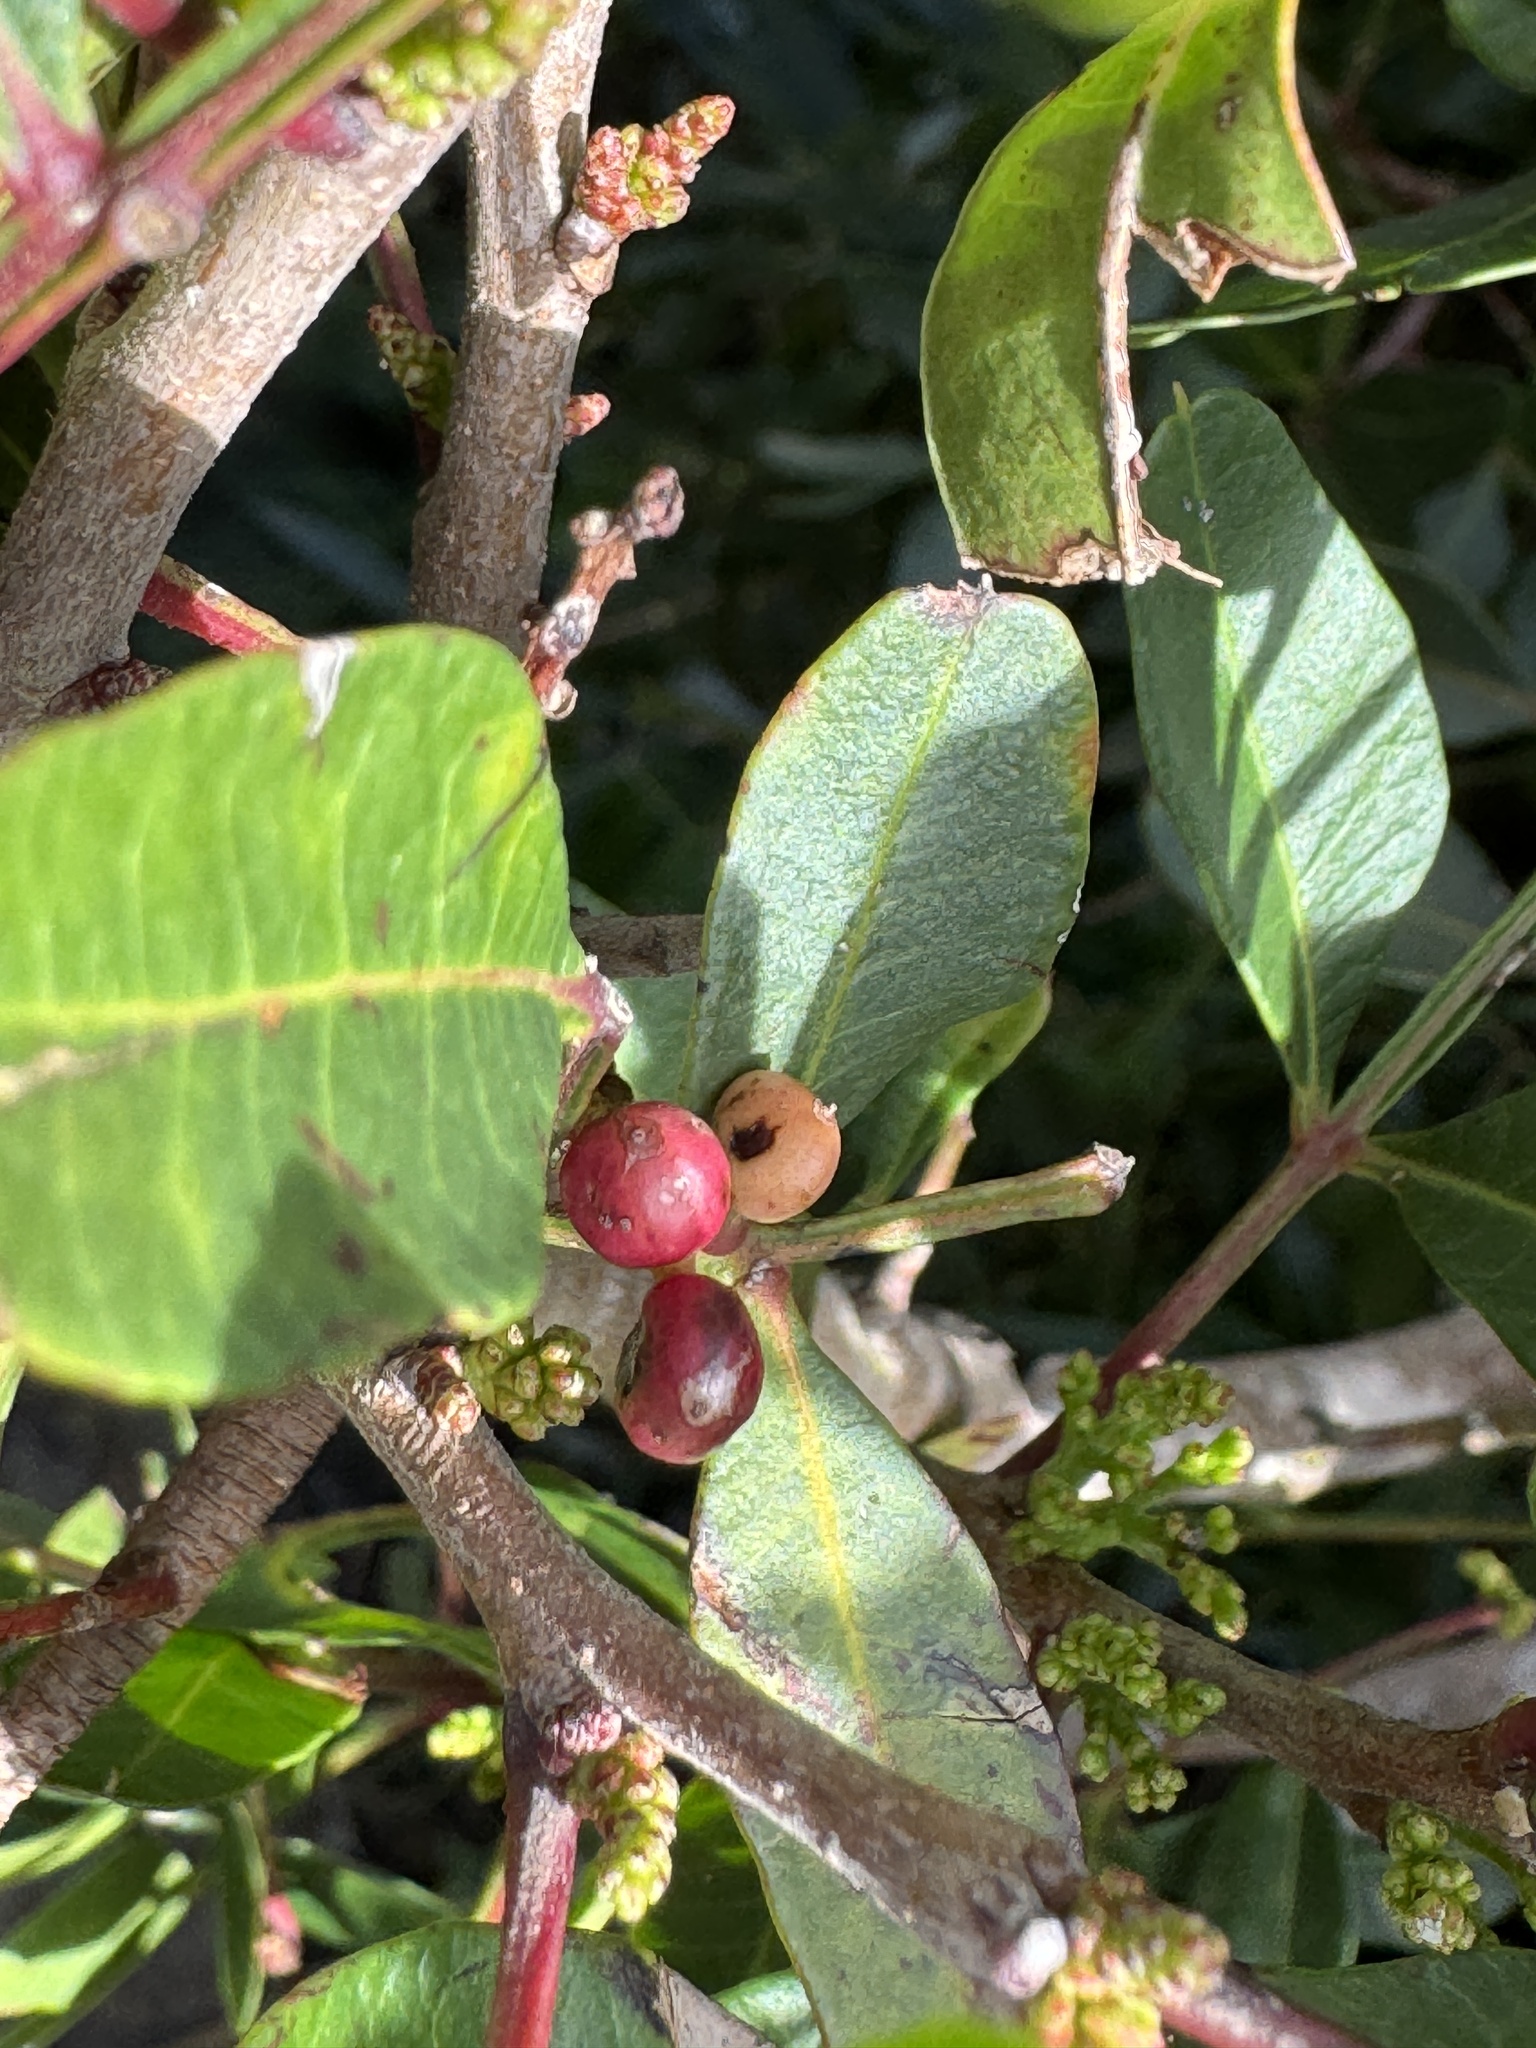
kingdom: Plantae
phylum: Tracheophyta
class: Magnoliopsida
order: Sapindales
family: Anacardiaceae
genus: Pistacia
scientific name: Pistacia lentiscus
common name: Lentisk
